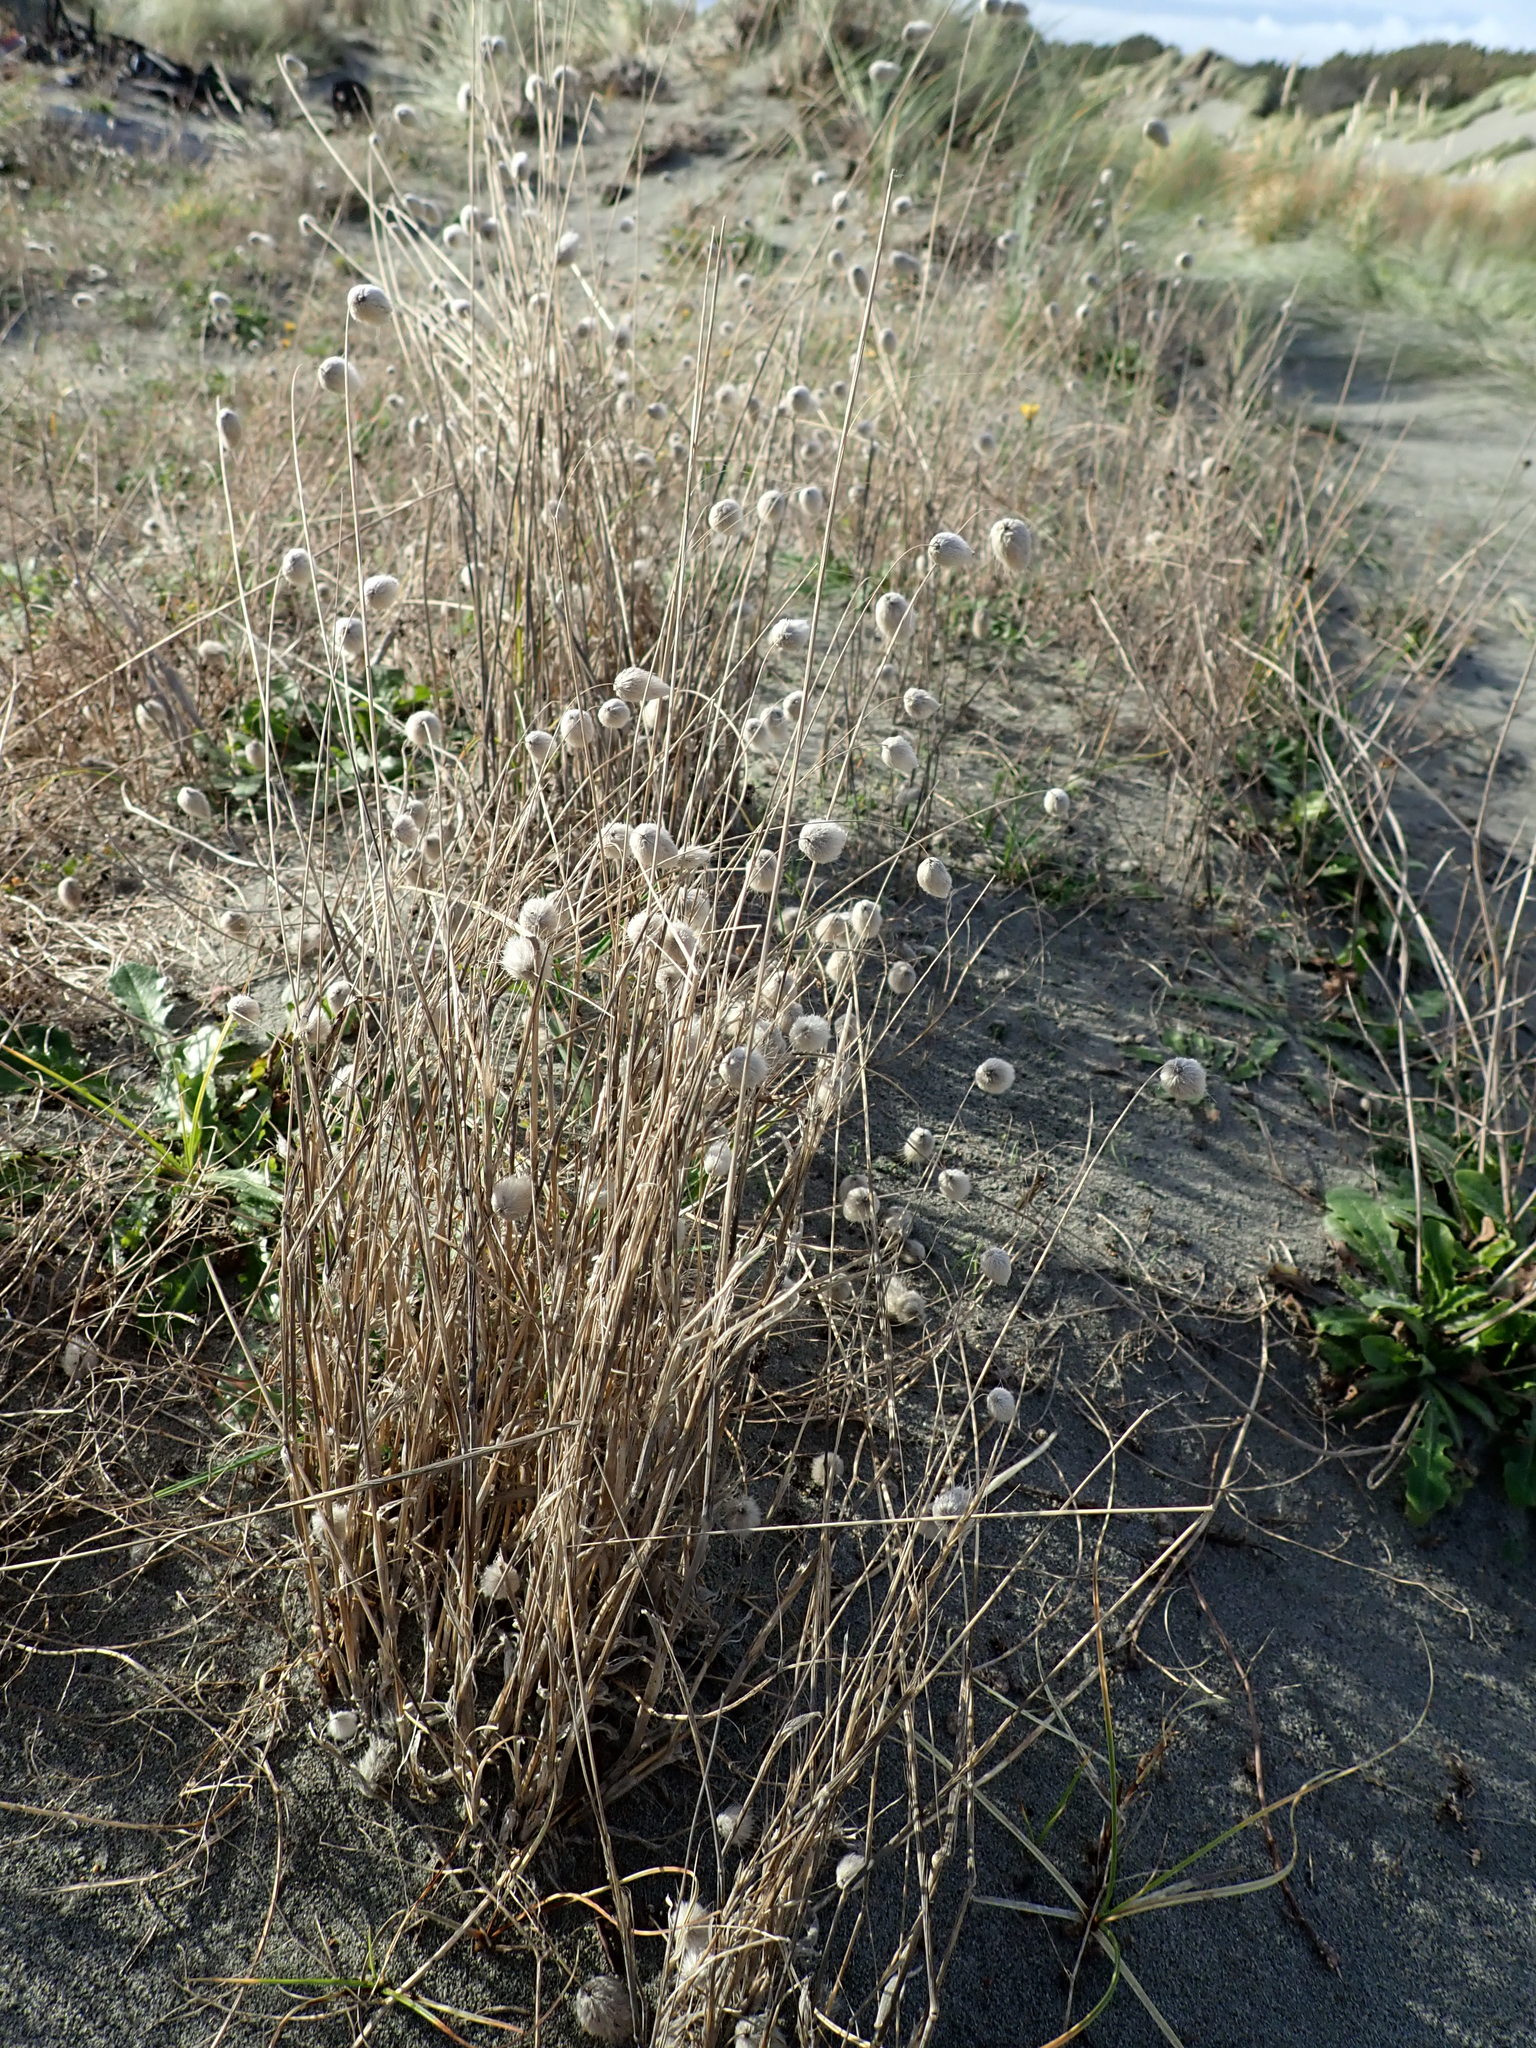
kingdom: Plantae
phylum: Tracheophyta
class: Liliopsida
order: Poales
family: Poaceae
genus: Lagurus
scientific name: Lagurus ovatus
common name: Hare's-tail
